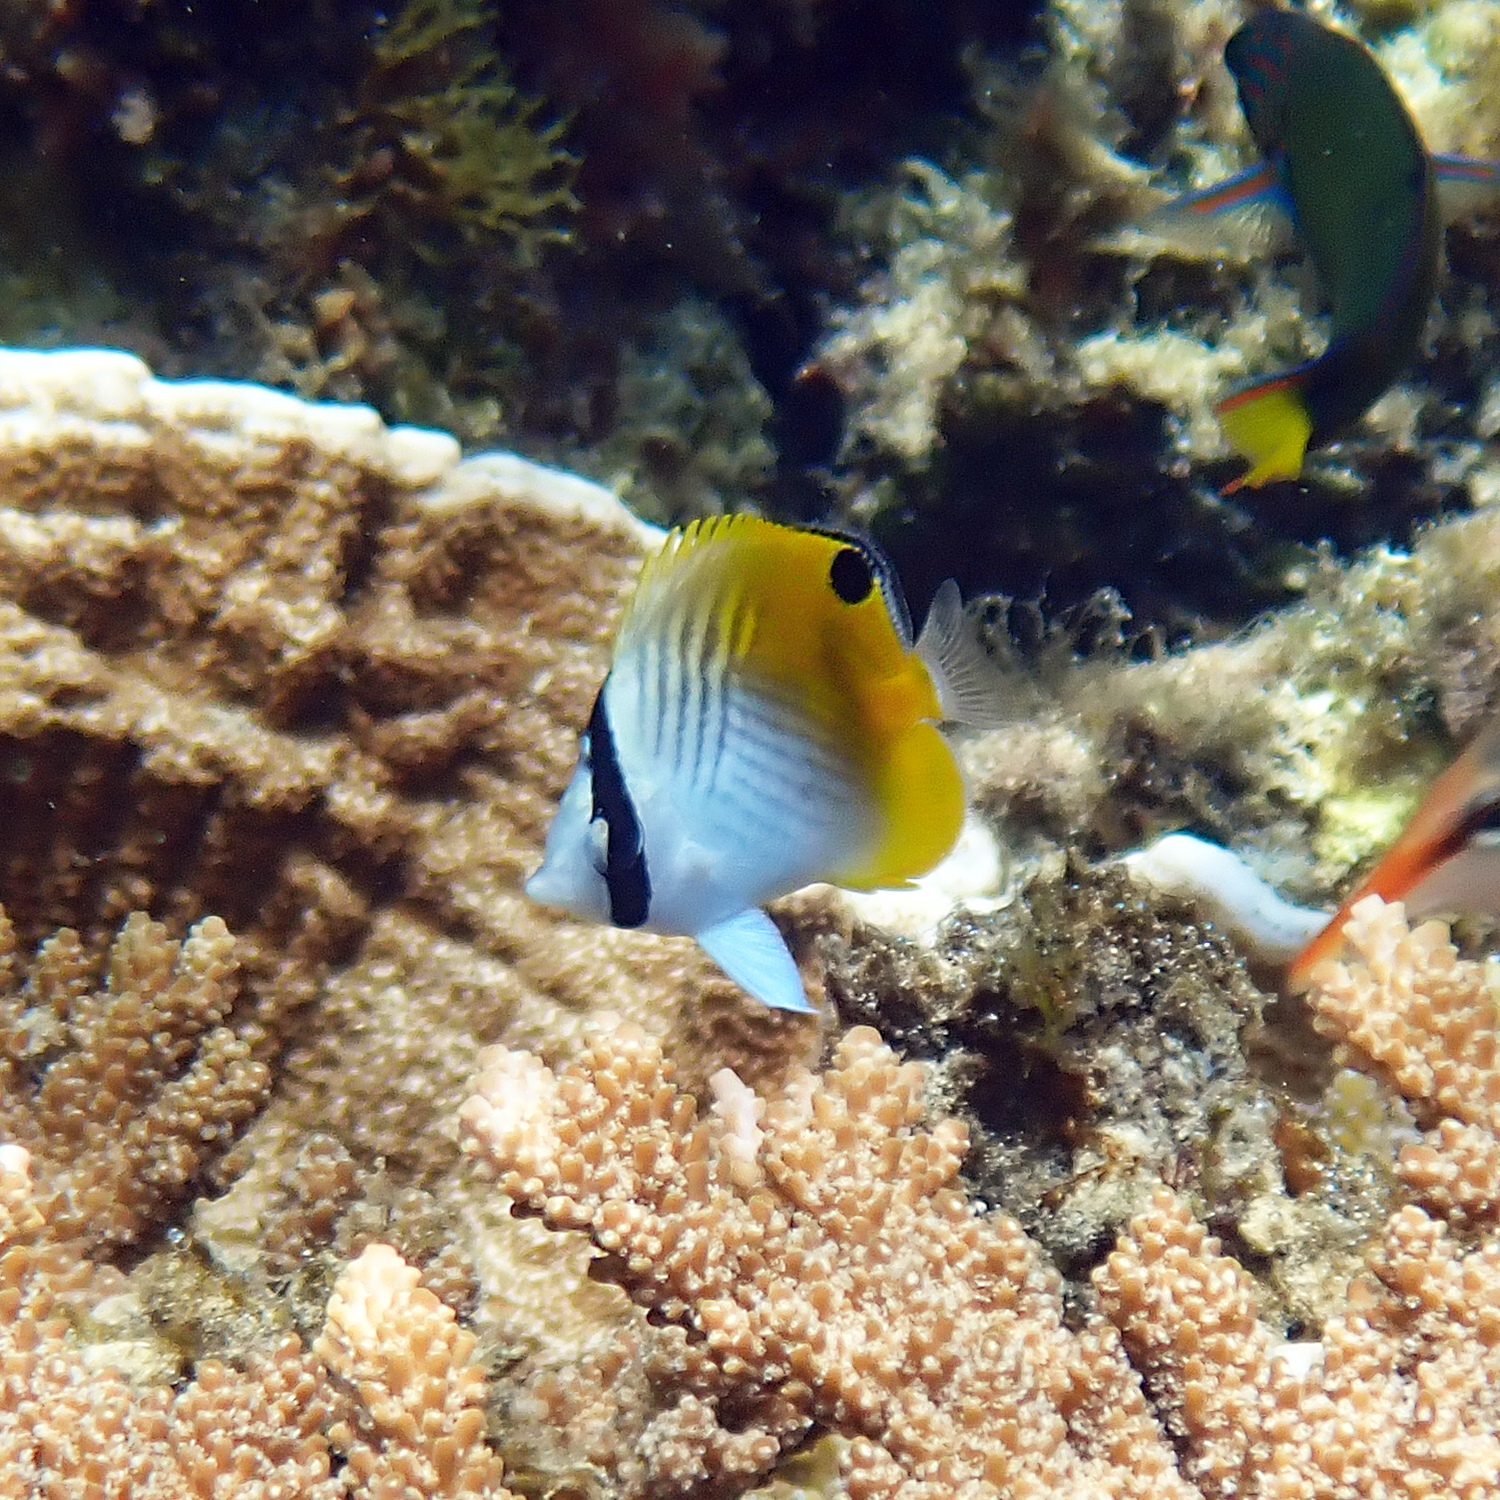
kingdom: Animalia
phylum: Chordata
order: Perciformes
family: Chaetodontidae
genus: Chaetodon
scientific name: Chaetodon auriga
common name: Threadfin butterflyfish
